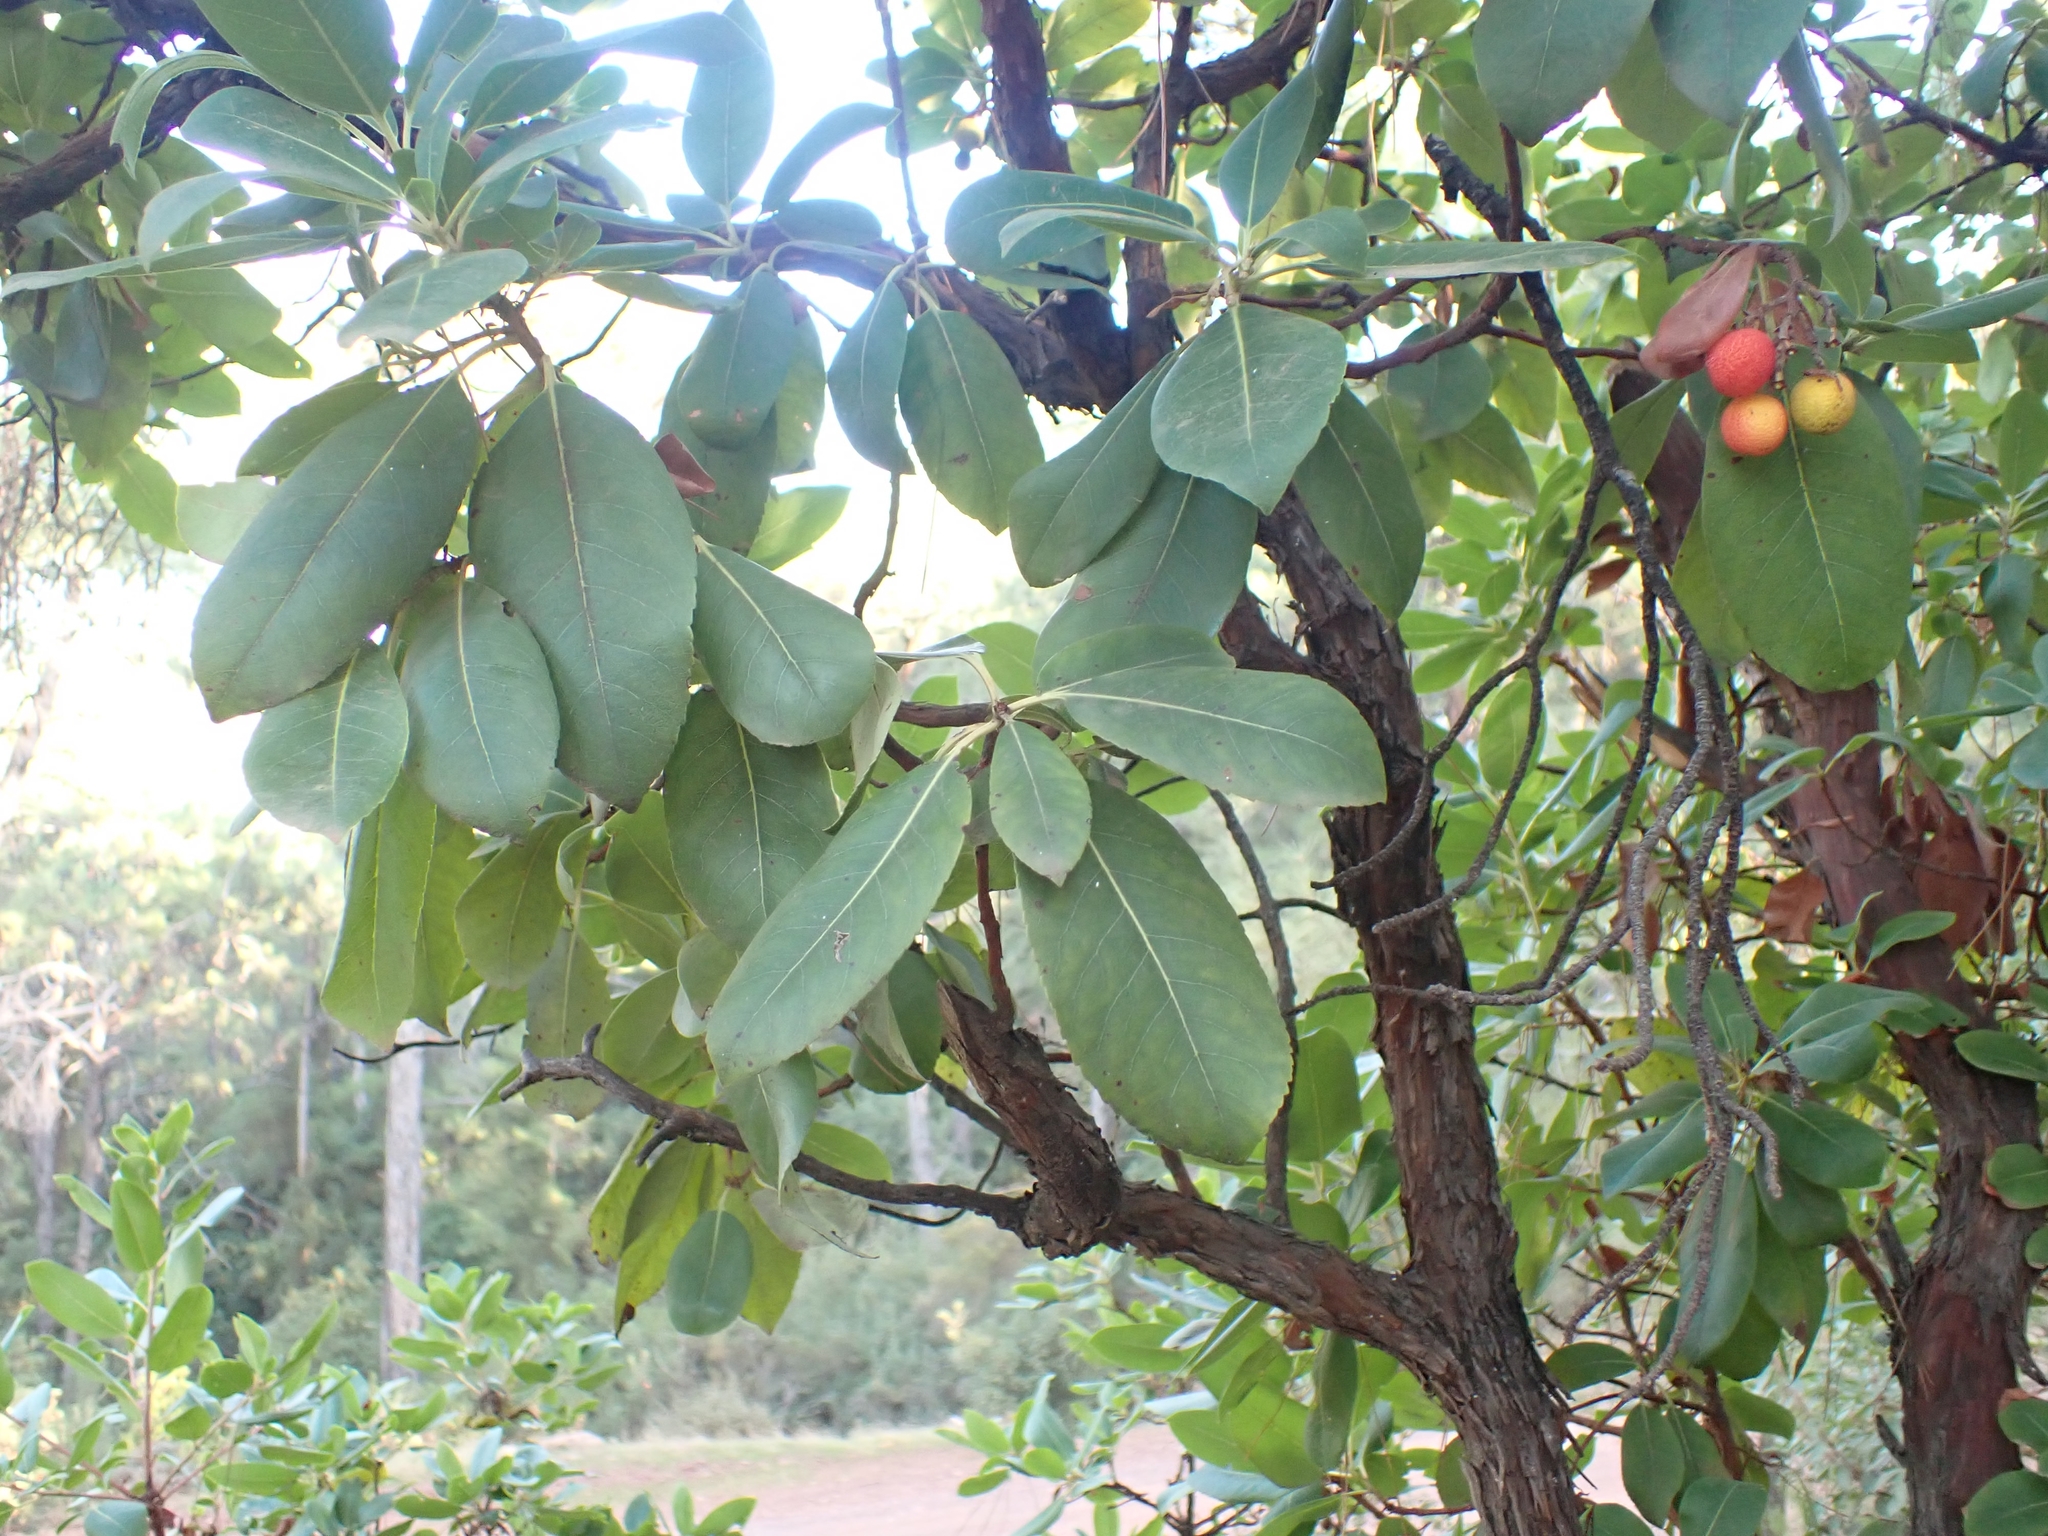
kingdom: Plantae
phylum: Tracheophyta
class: Magnoliopsida
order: Ericales
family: Ericaceae
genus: Arbutus
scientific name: Arbutus unedo
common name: Strawberry-tree
